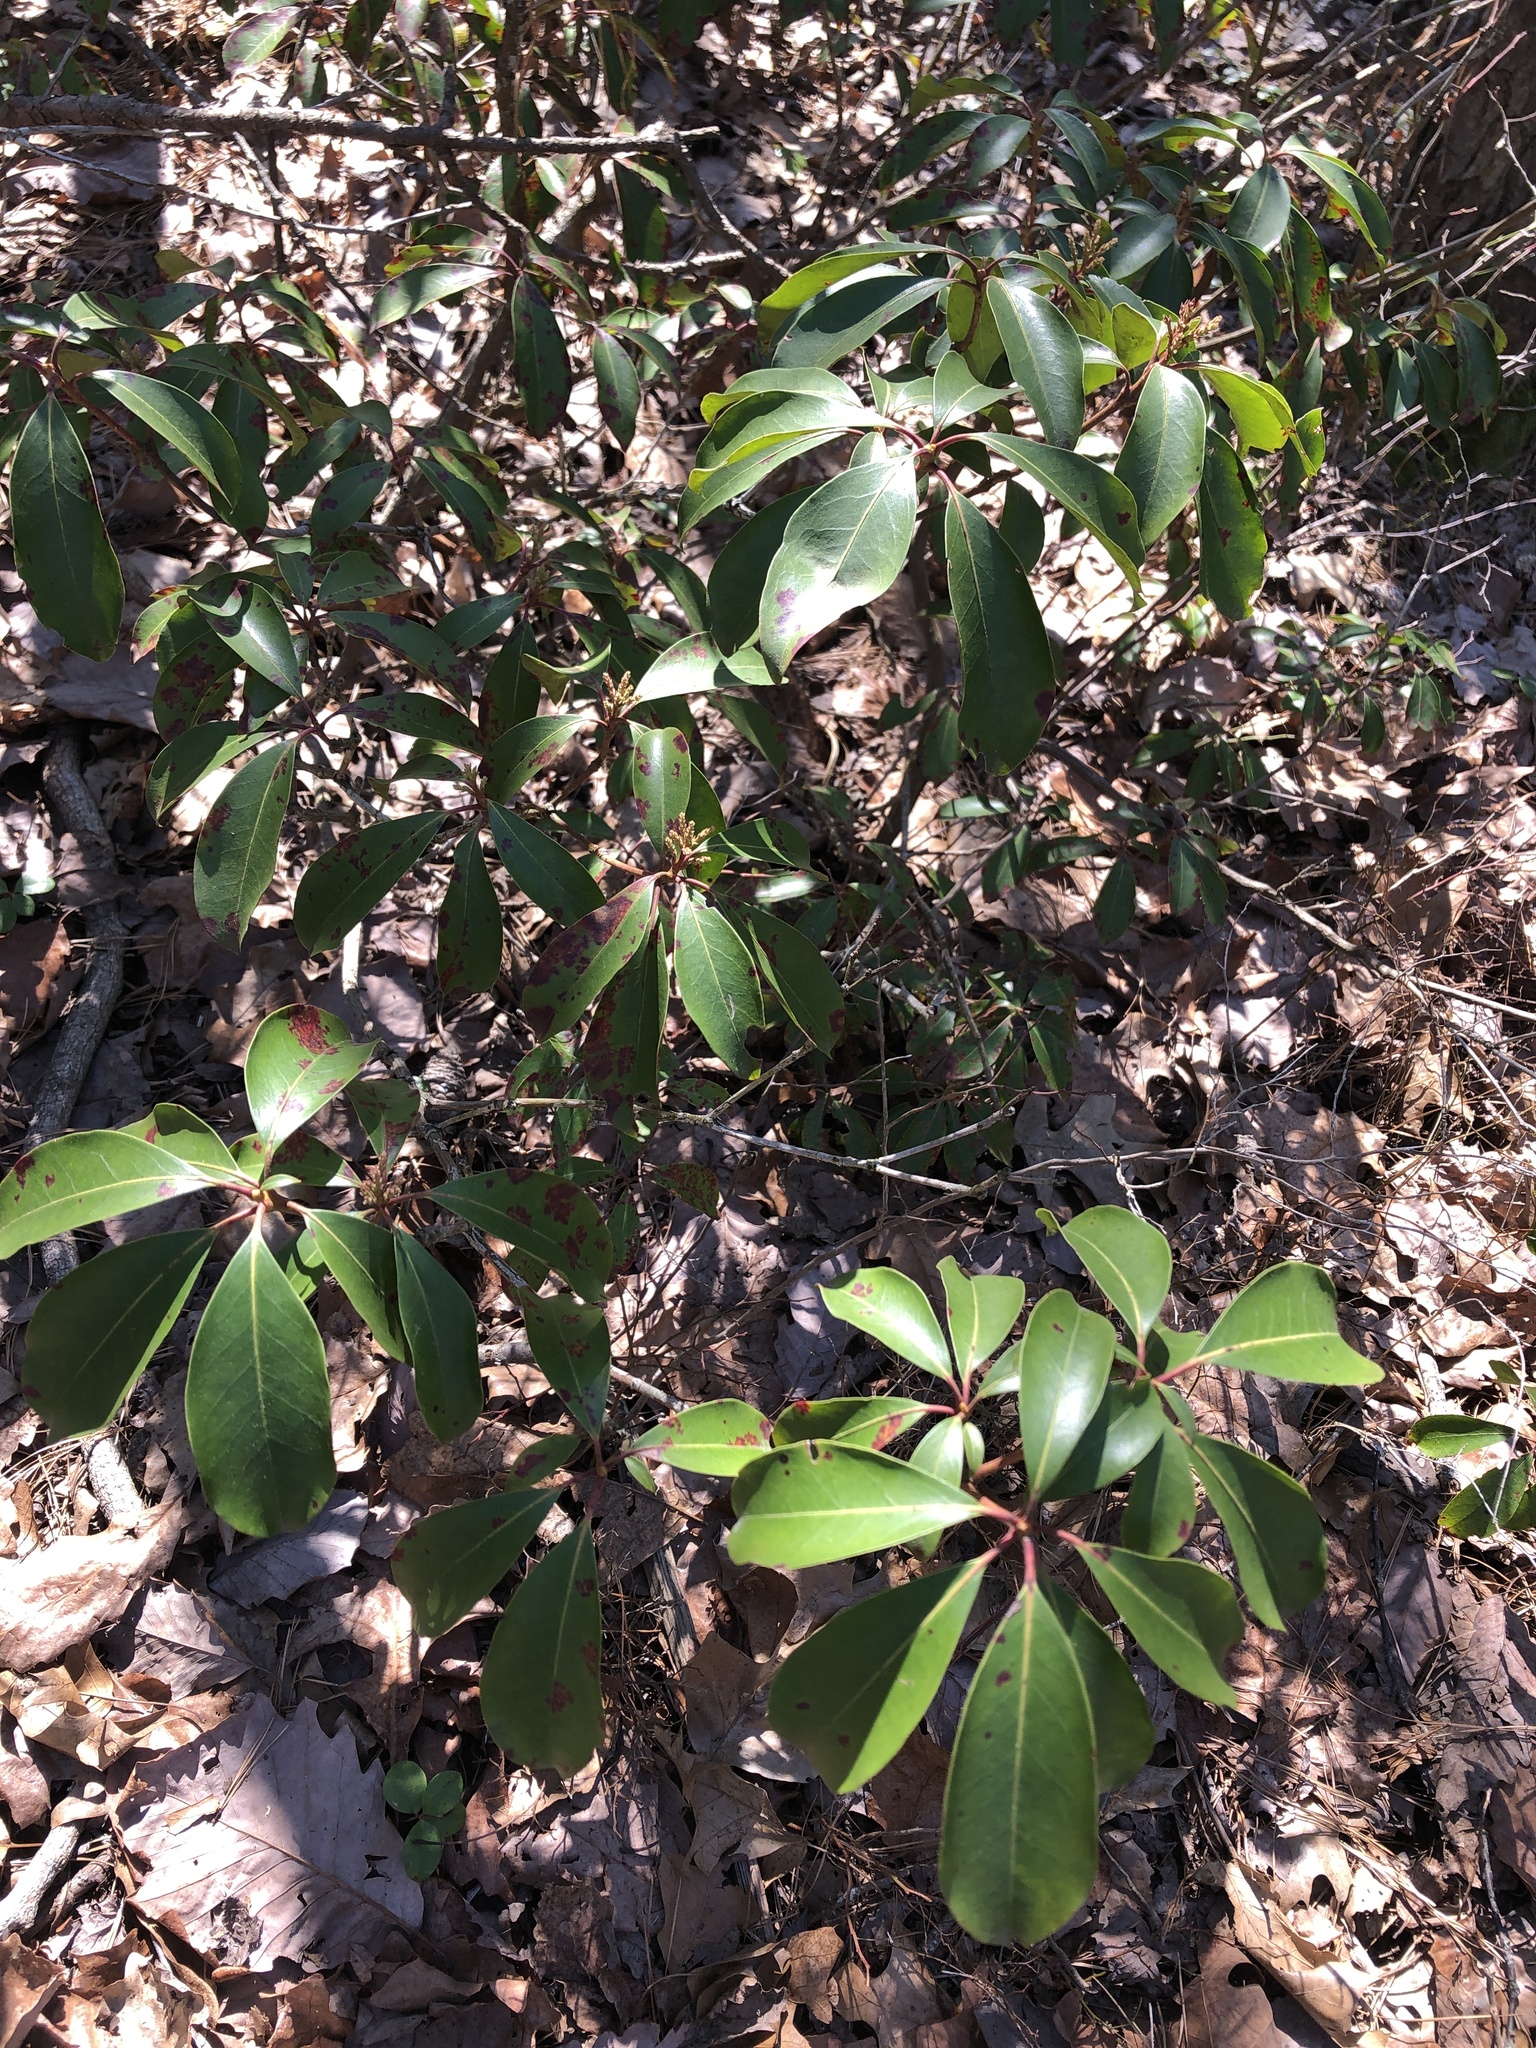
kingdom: Plantae
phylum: Tracheophyta
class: Magnoliopsida
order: Ericales
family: Ericaceae
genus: Kalmia
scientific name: Kalmia latifolia
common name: Mountain-laurel
